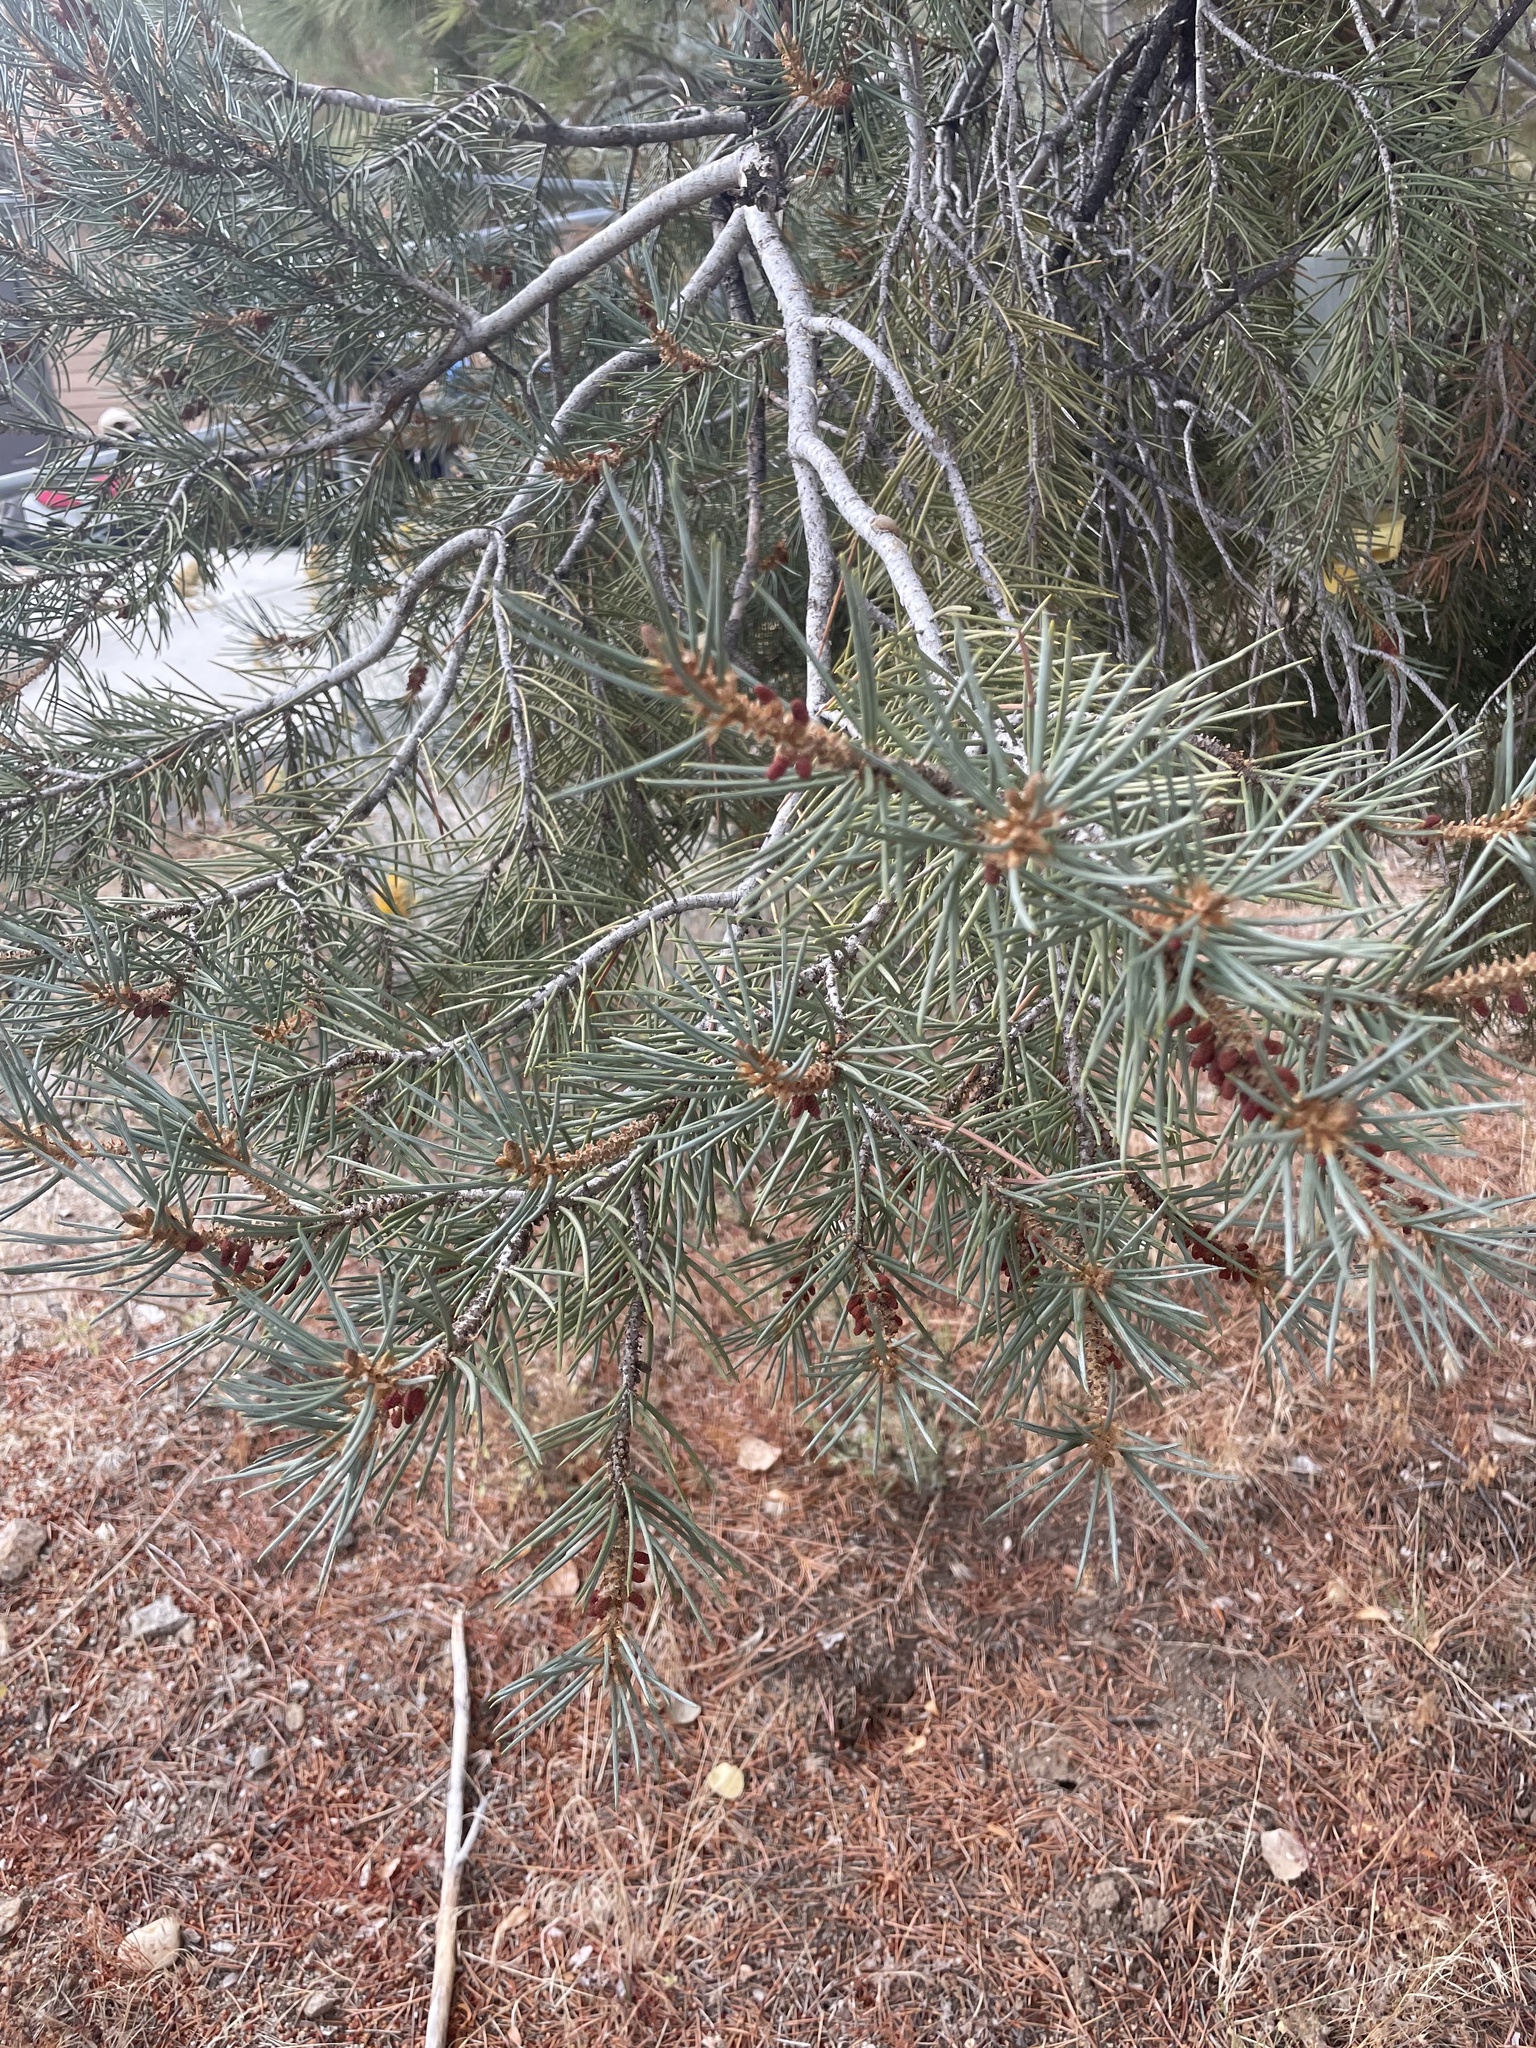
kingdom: Plantae
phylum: Tracheophyta
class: Pinopsida
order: Pinales
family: Pinaceae
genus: Pinus
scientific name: Pinus monophylla
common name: One-leaved nut pine
